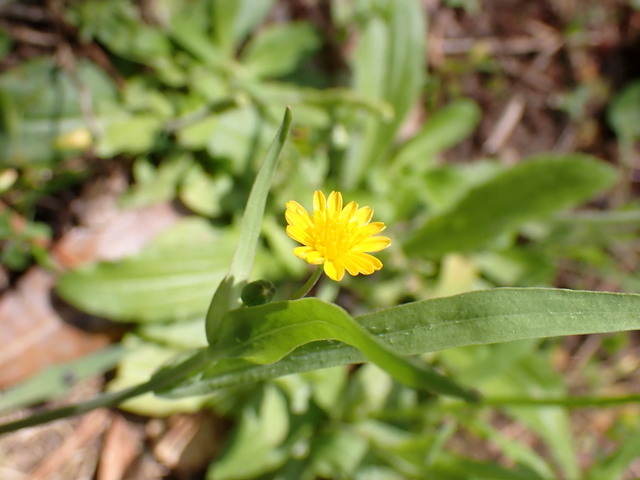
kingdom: Plantae
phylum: Tracheophyta
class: Magnoliopsida
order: Asterales
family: Asteraceae
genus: Krigia
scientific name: Krigia cespitosa
